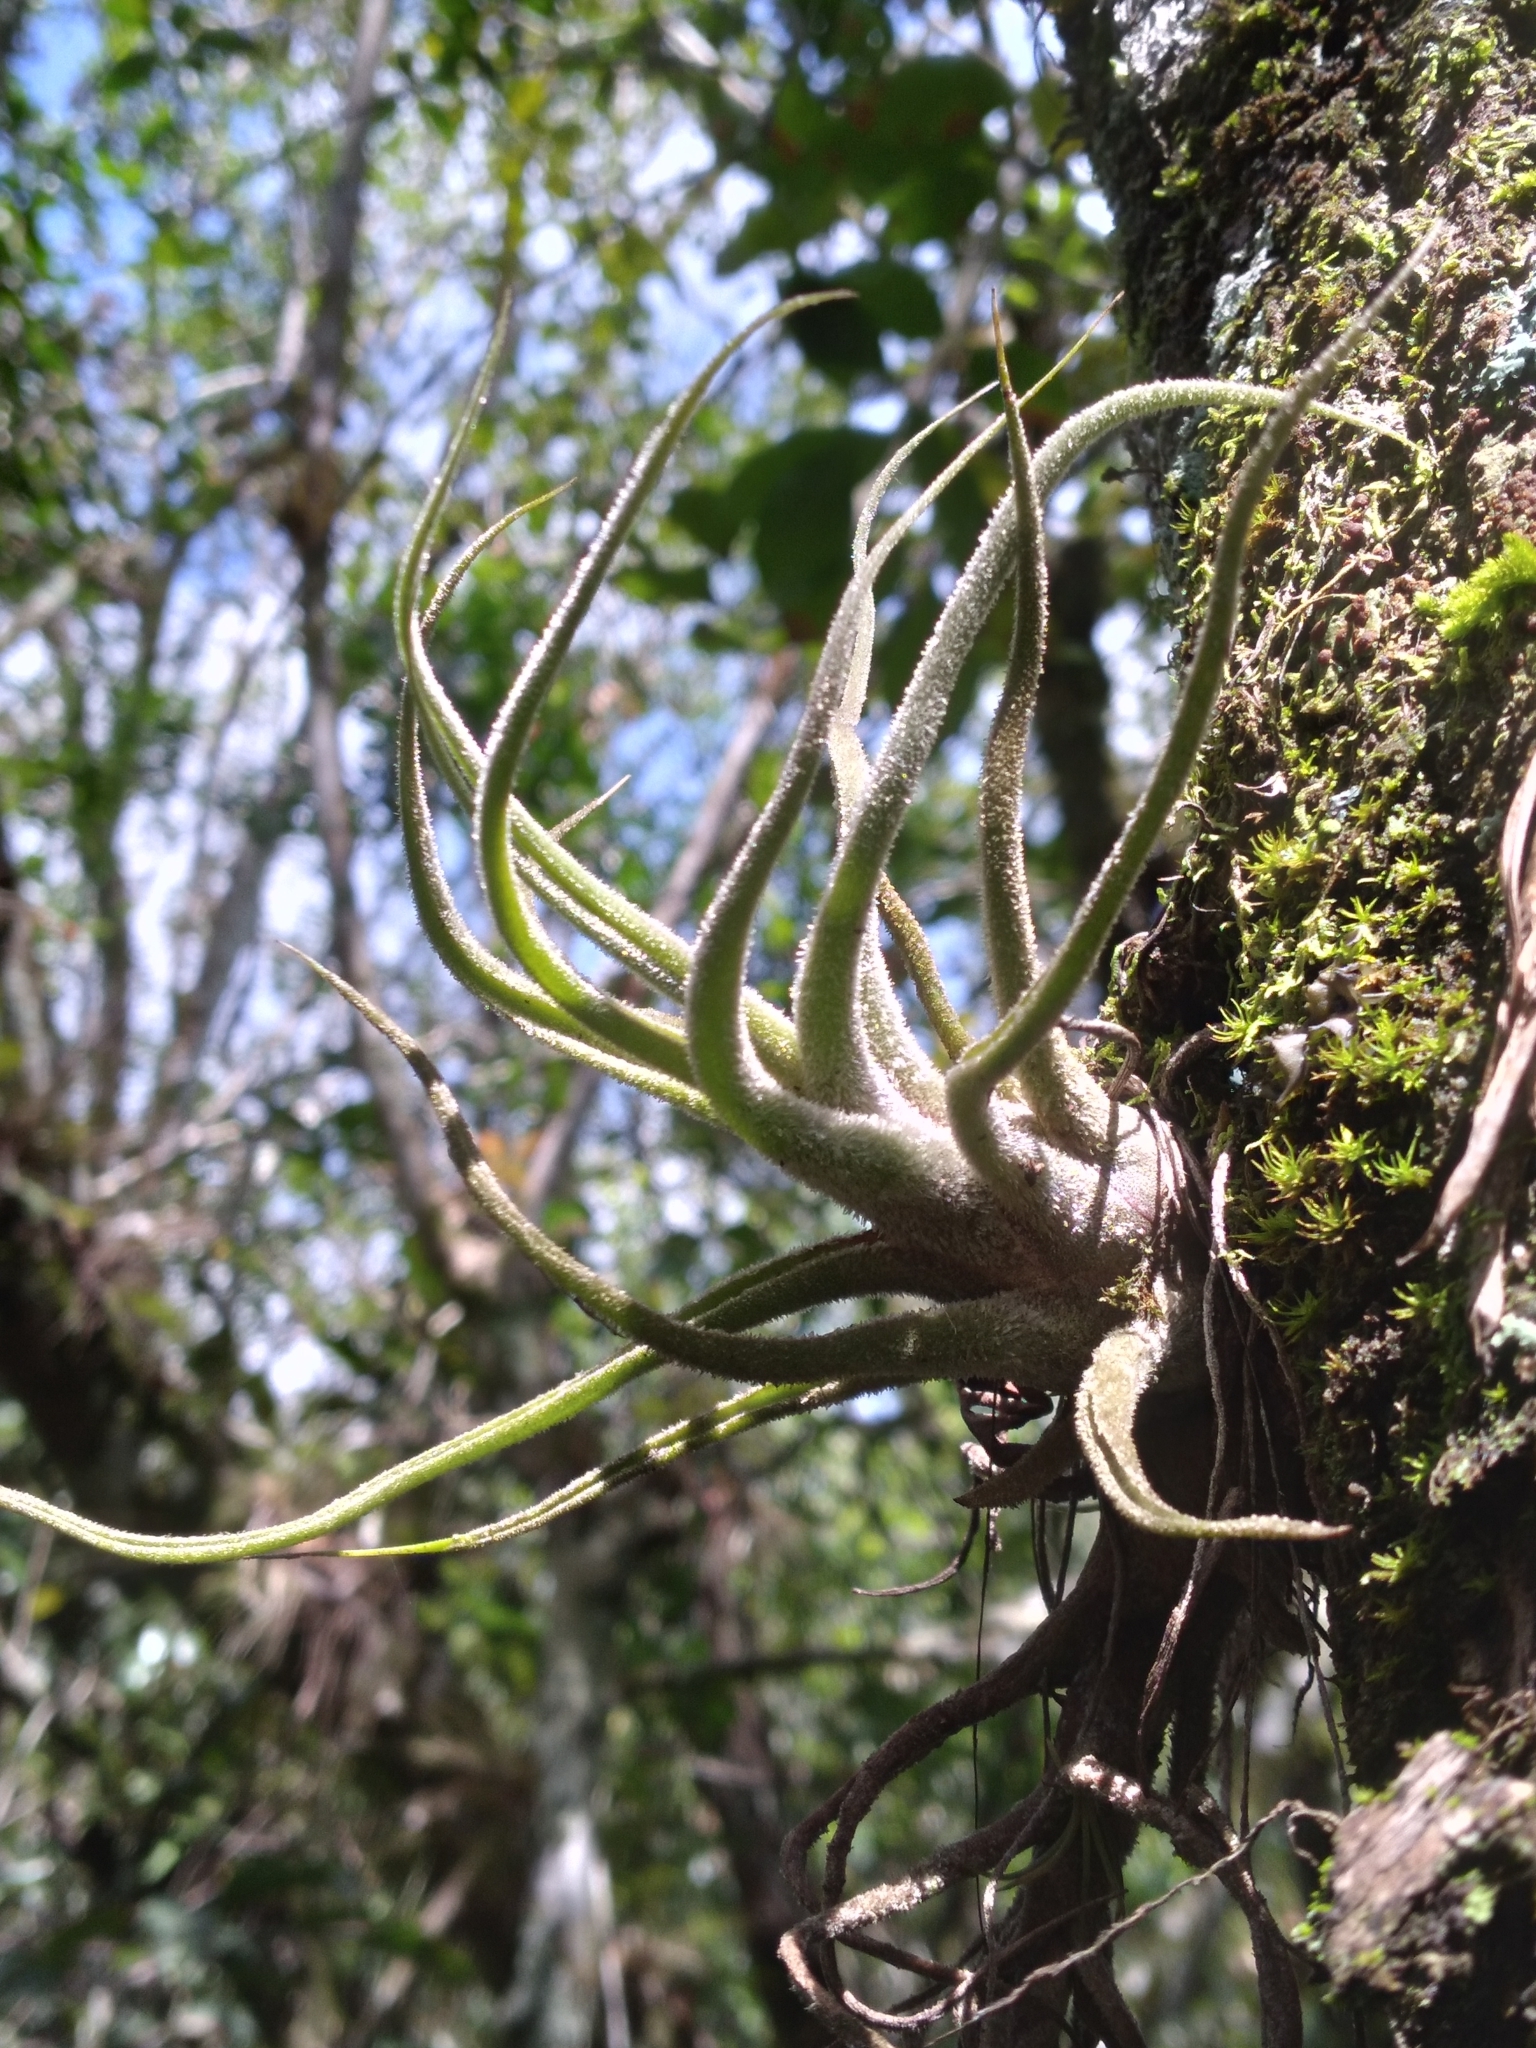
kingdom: Plantae
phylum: Tracheophyta
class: Liliopsida
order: Poales
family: Bromeliaceae
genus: Tillandsia
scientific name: Tillandsia pruinosa
